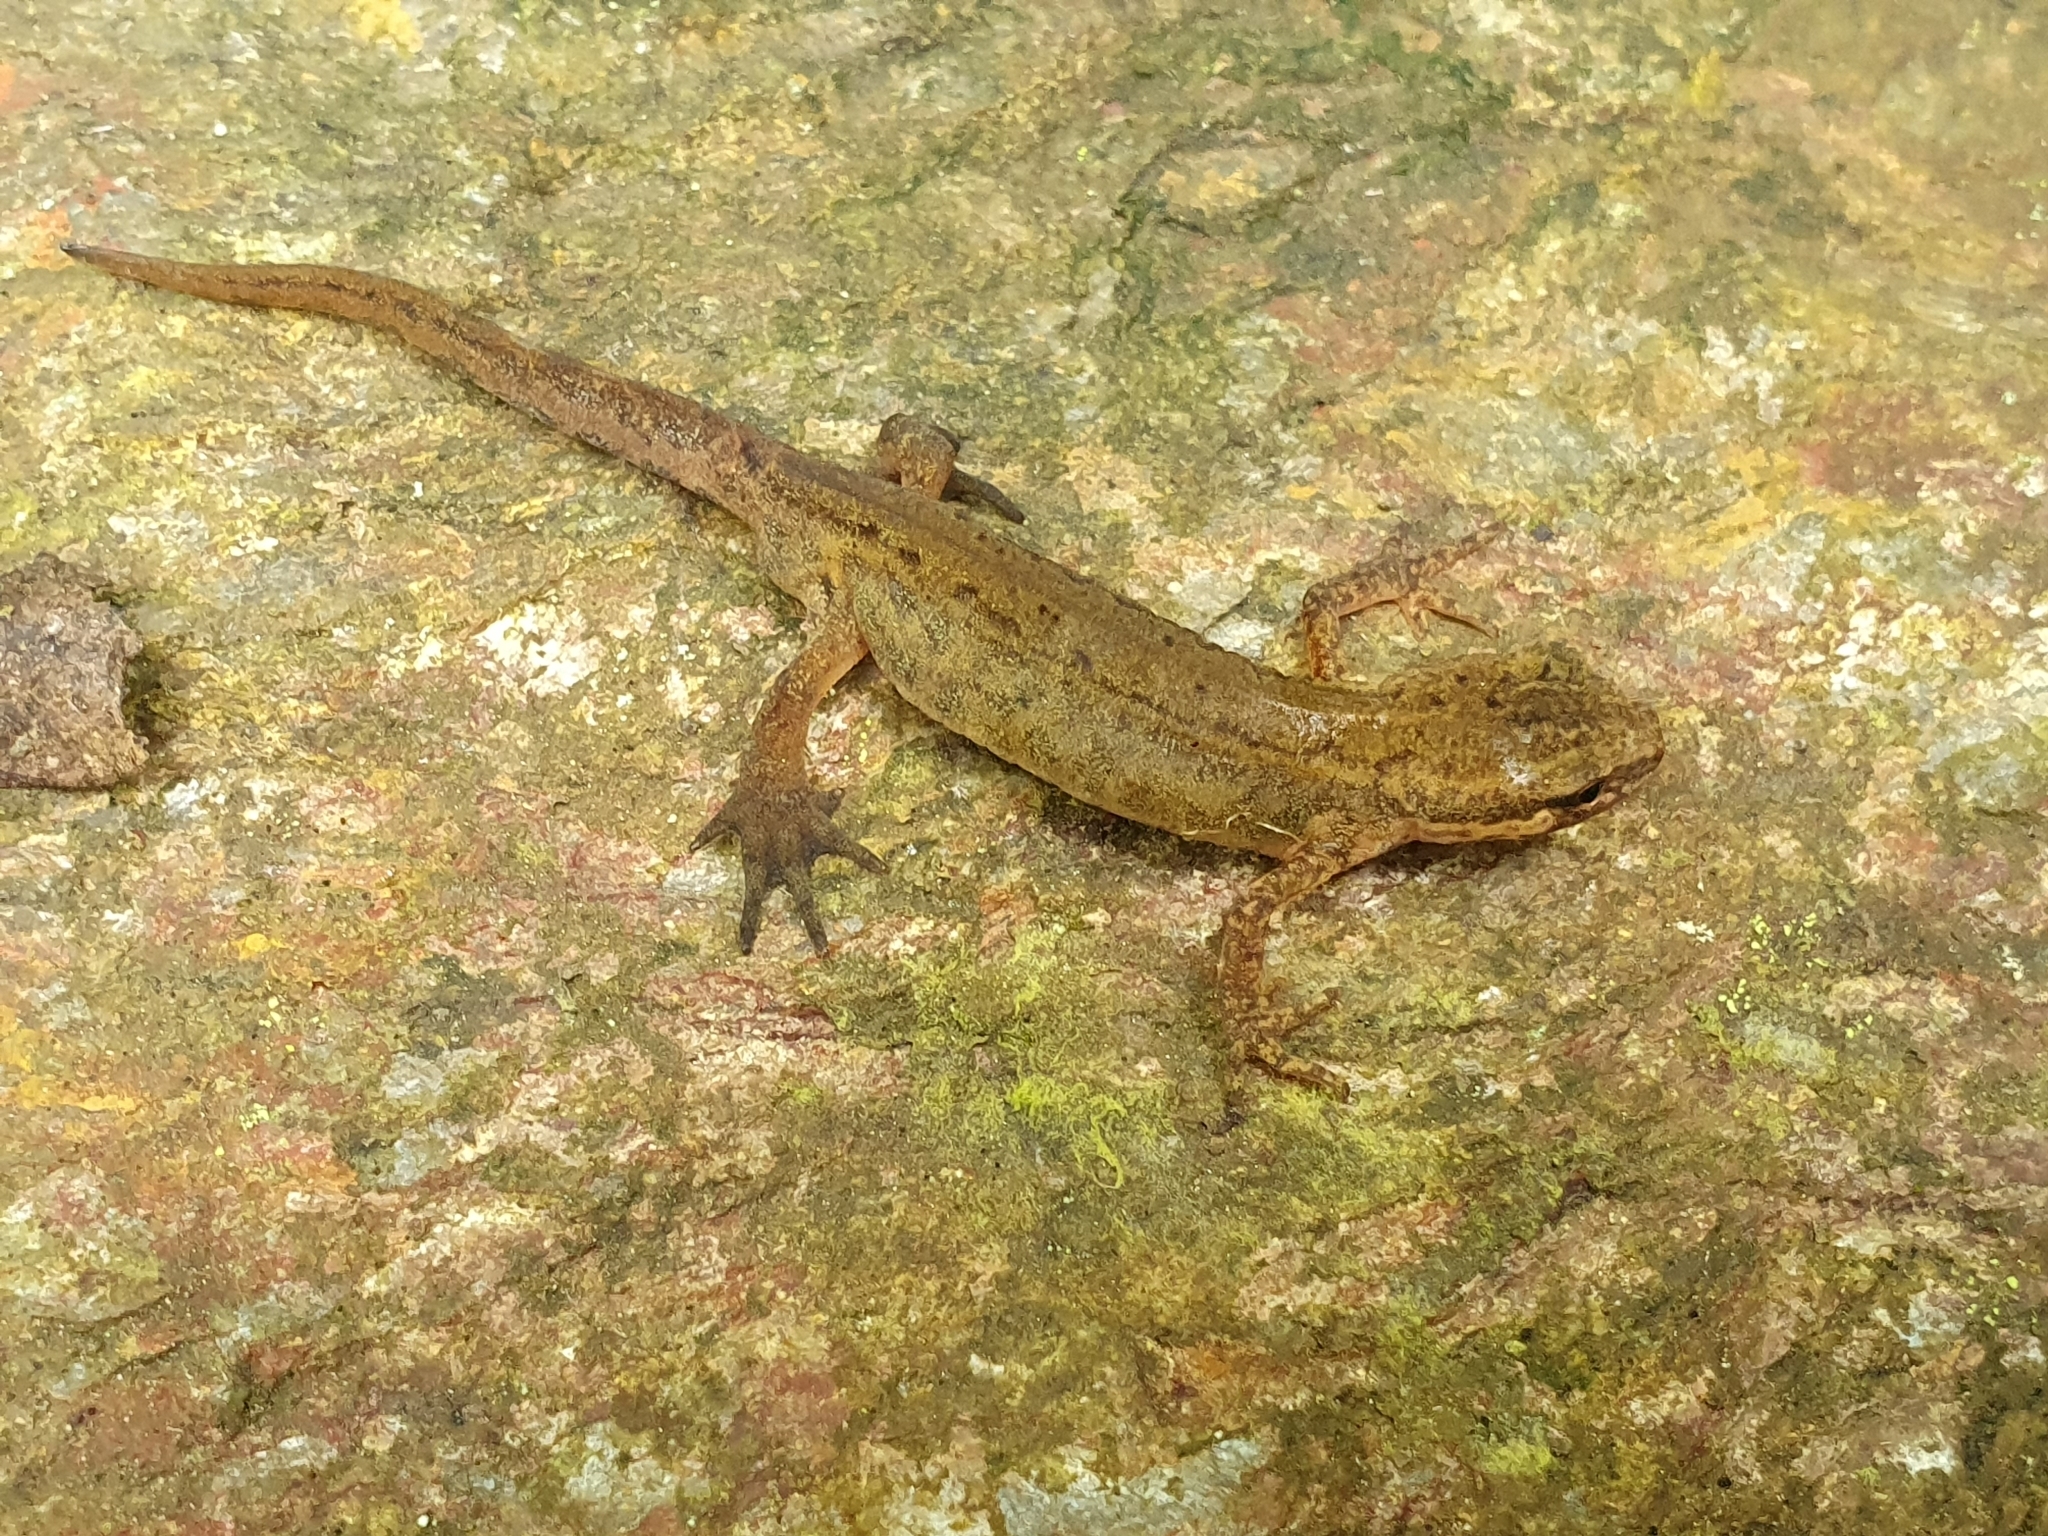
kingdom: Animalia
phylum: Chordata
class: Amphibia
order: Caudata
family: Salamandridae
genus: Lissotriton
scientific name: Lissotriton helveticus
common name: Palmate newt
